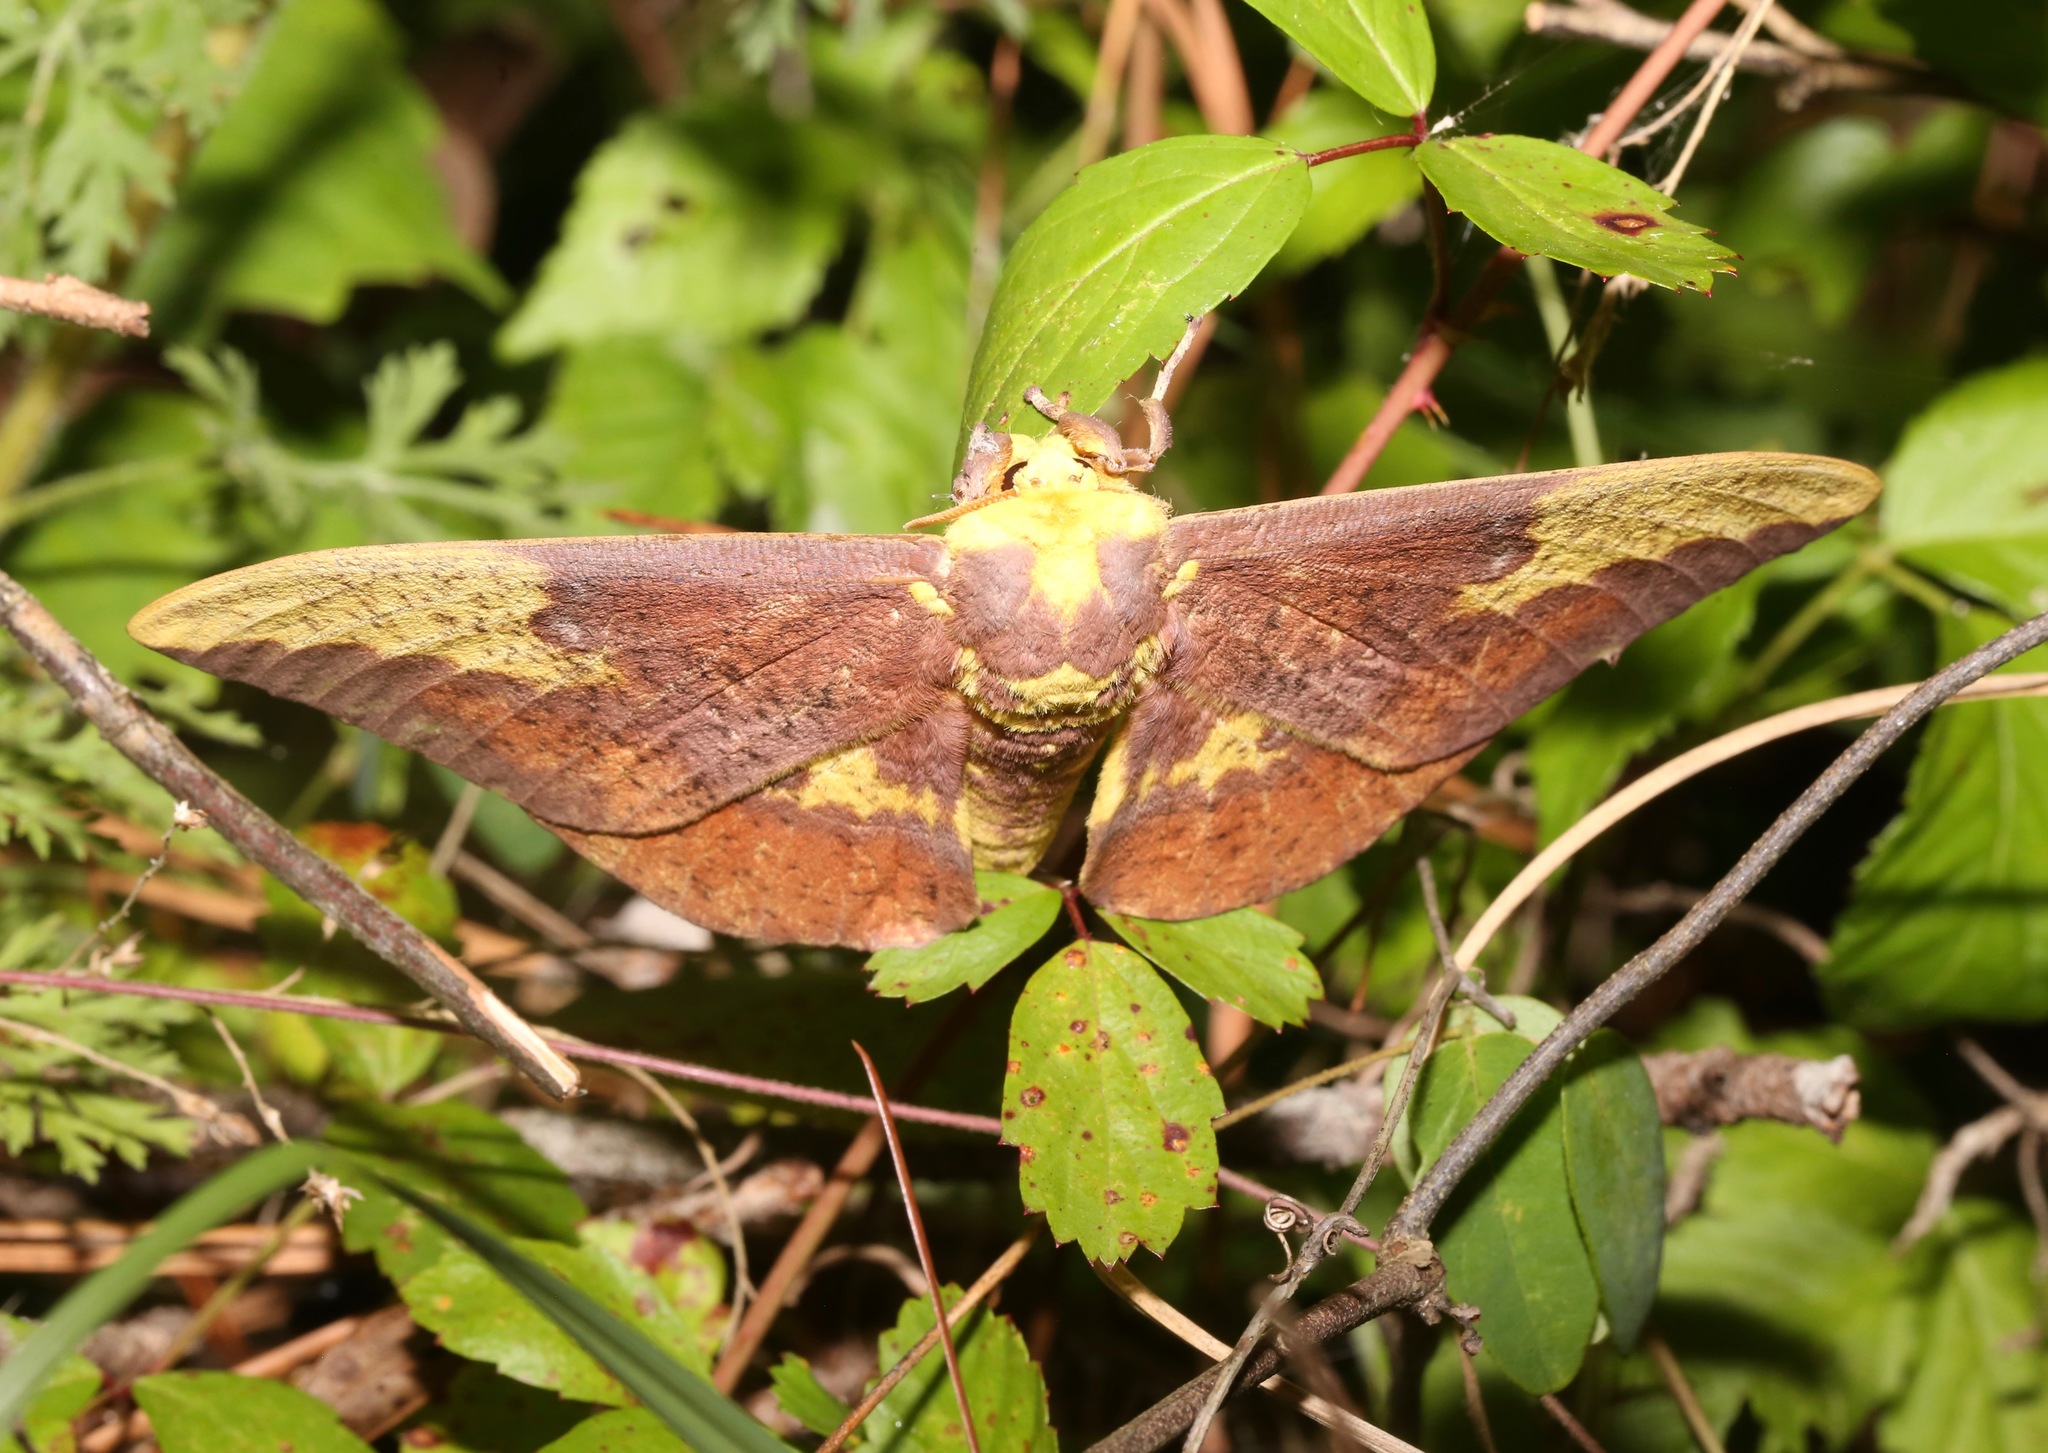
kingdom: Animalia
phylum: Arthropoda
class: Insecta
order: Lepidoptera
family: Saturniidae
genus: Eacles
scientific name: Eacles imperialis
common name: Imperial moth
